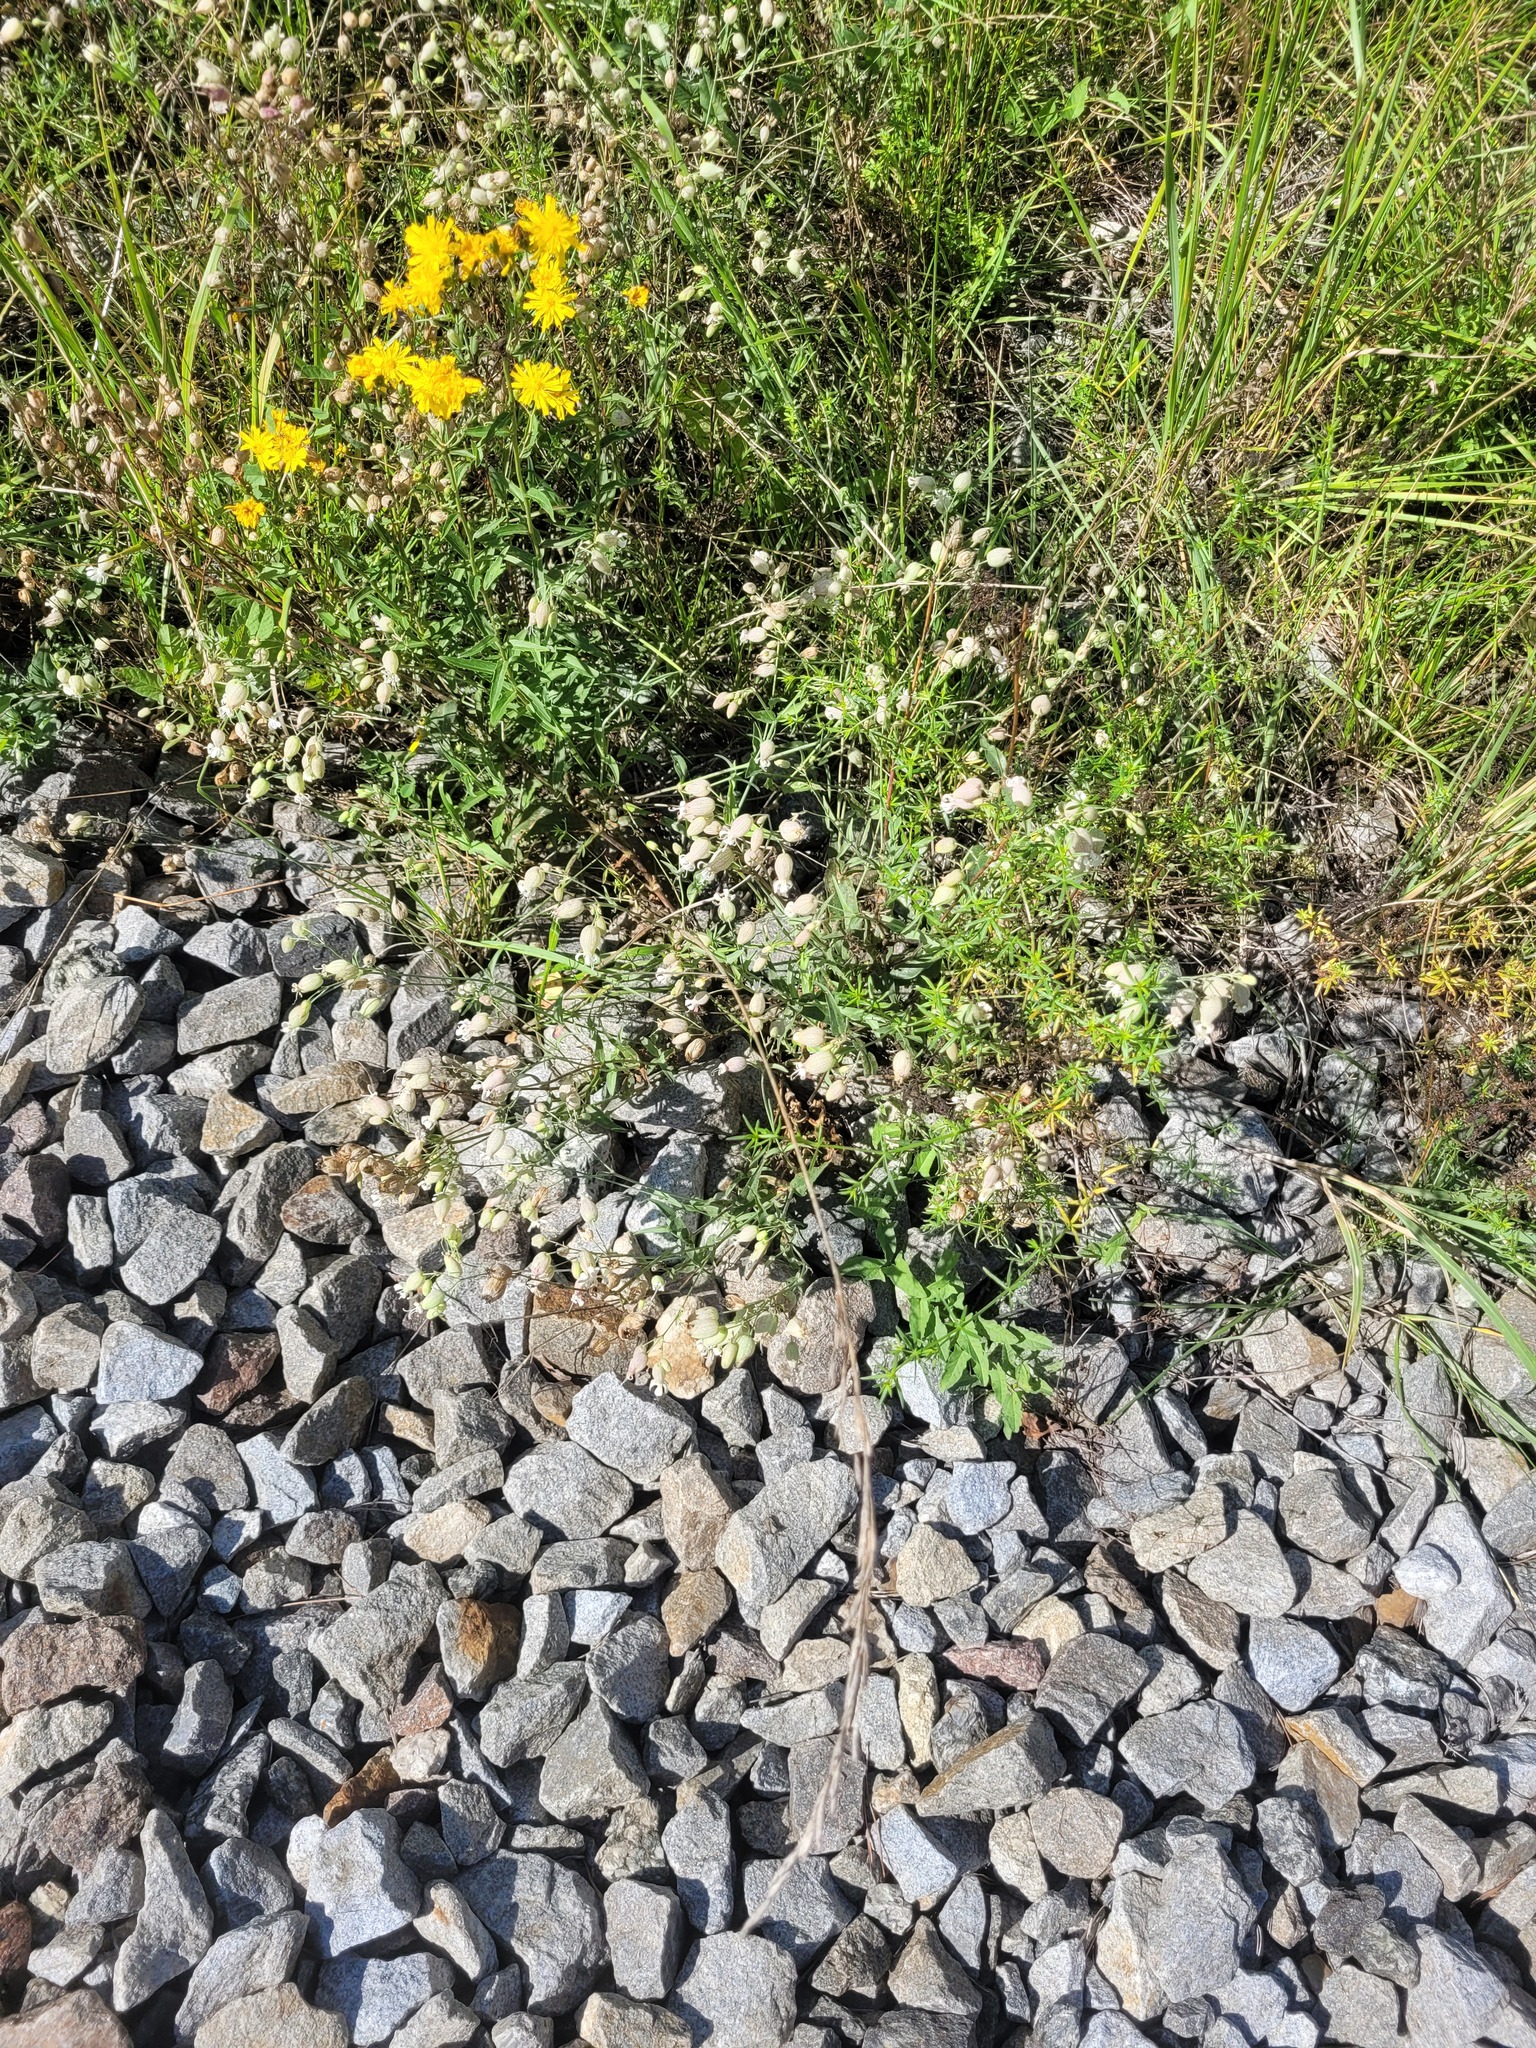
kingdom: Plantae
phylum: Tracheophyta
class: Magnoliopsida
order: Caryophyllales
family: Caryophyllaceae
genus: Silene
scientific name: Silene vulgaris
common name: Bladder campion
